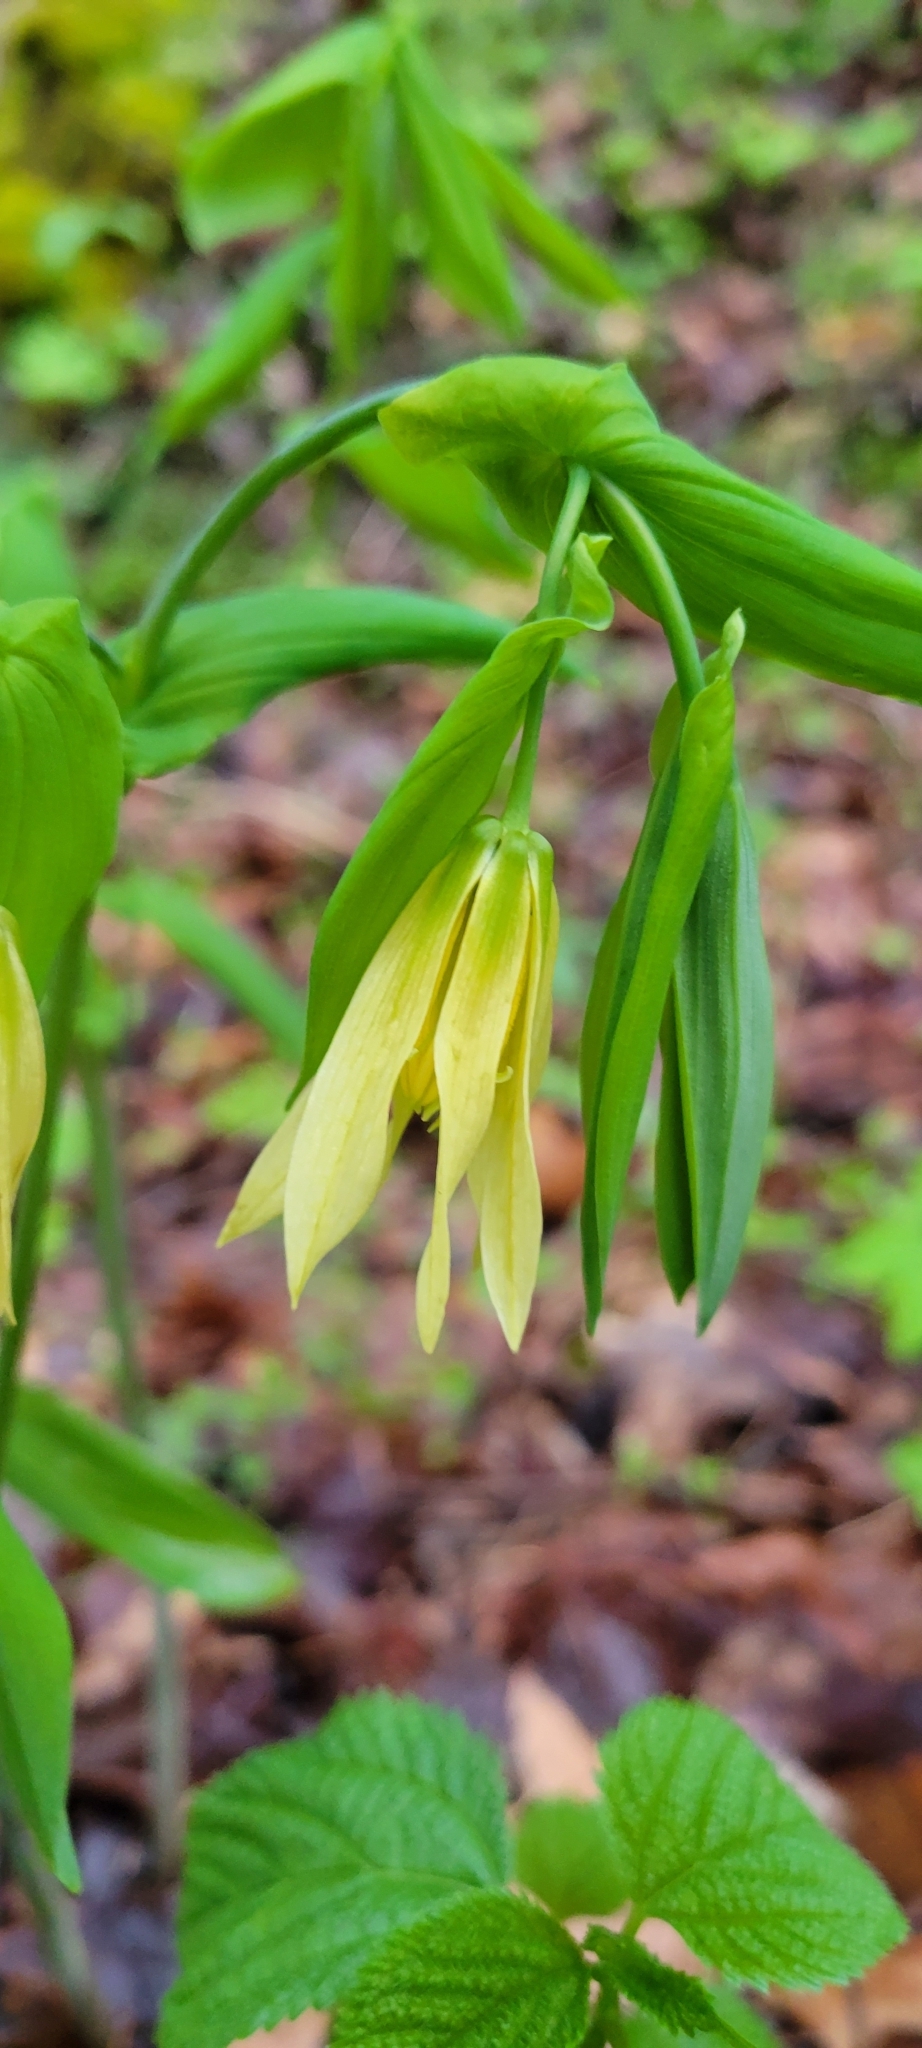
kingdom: Plantae
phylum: Tracheophyta
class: Liliopsida
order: Liliales
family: Colchicaceae
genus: Uvularia
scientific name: Uvularia grandiflora
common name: Bellwort
